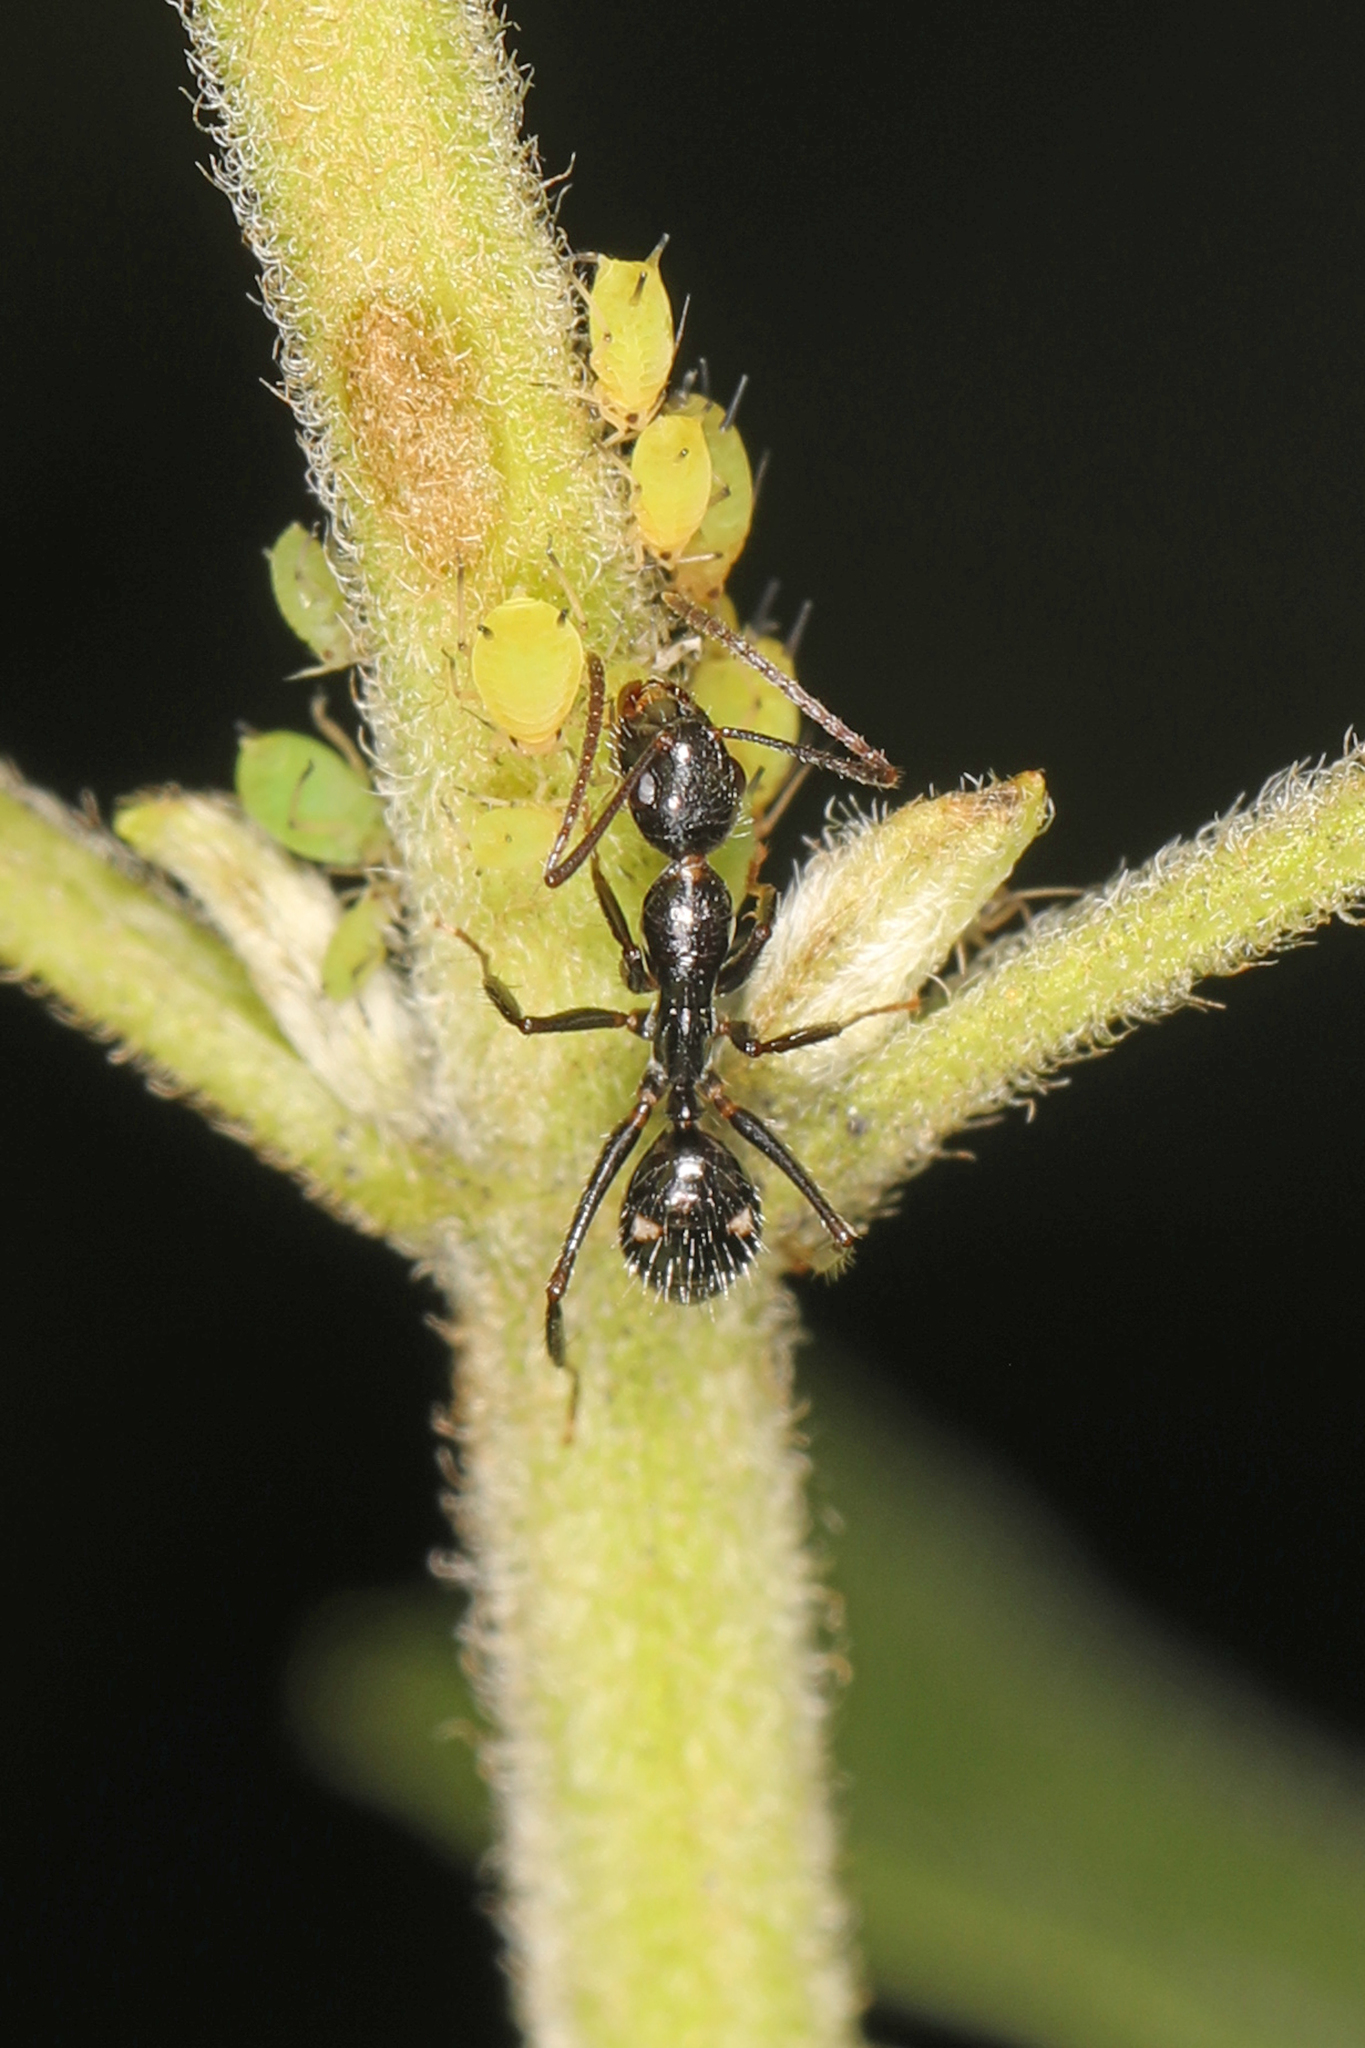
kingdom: Animalia
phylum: Arthropoda
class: Insecta
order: Hymenoptera
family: Formicidae
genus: Camponotus
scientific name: Camponotus sexguttatus
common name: Neotropical carpenter ant
